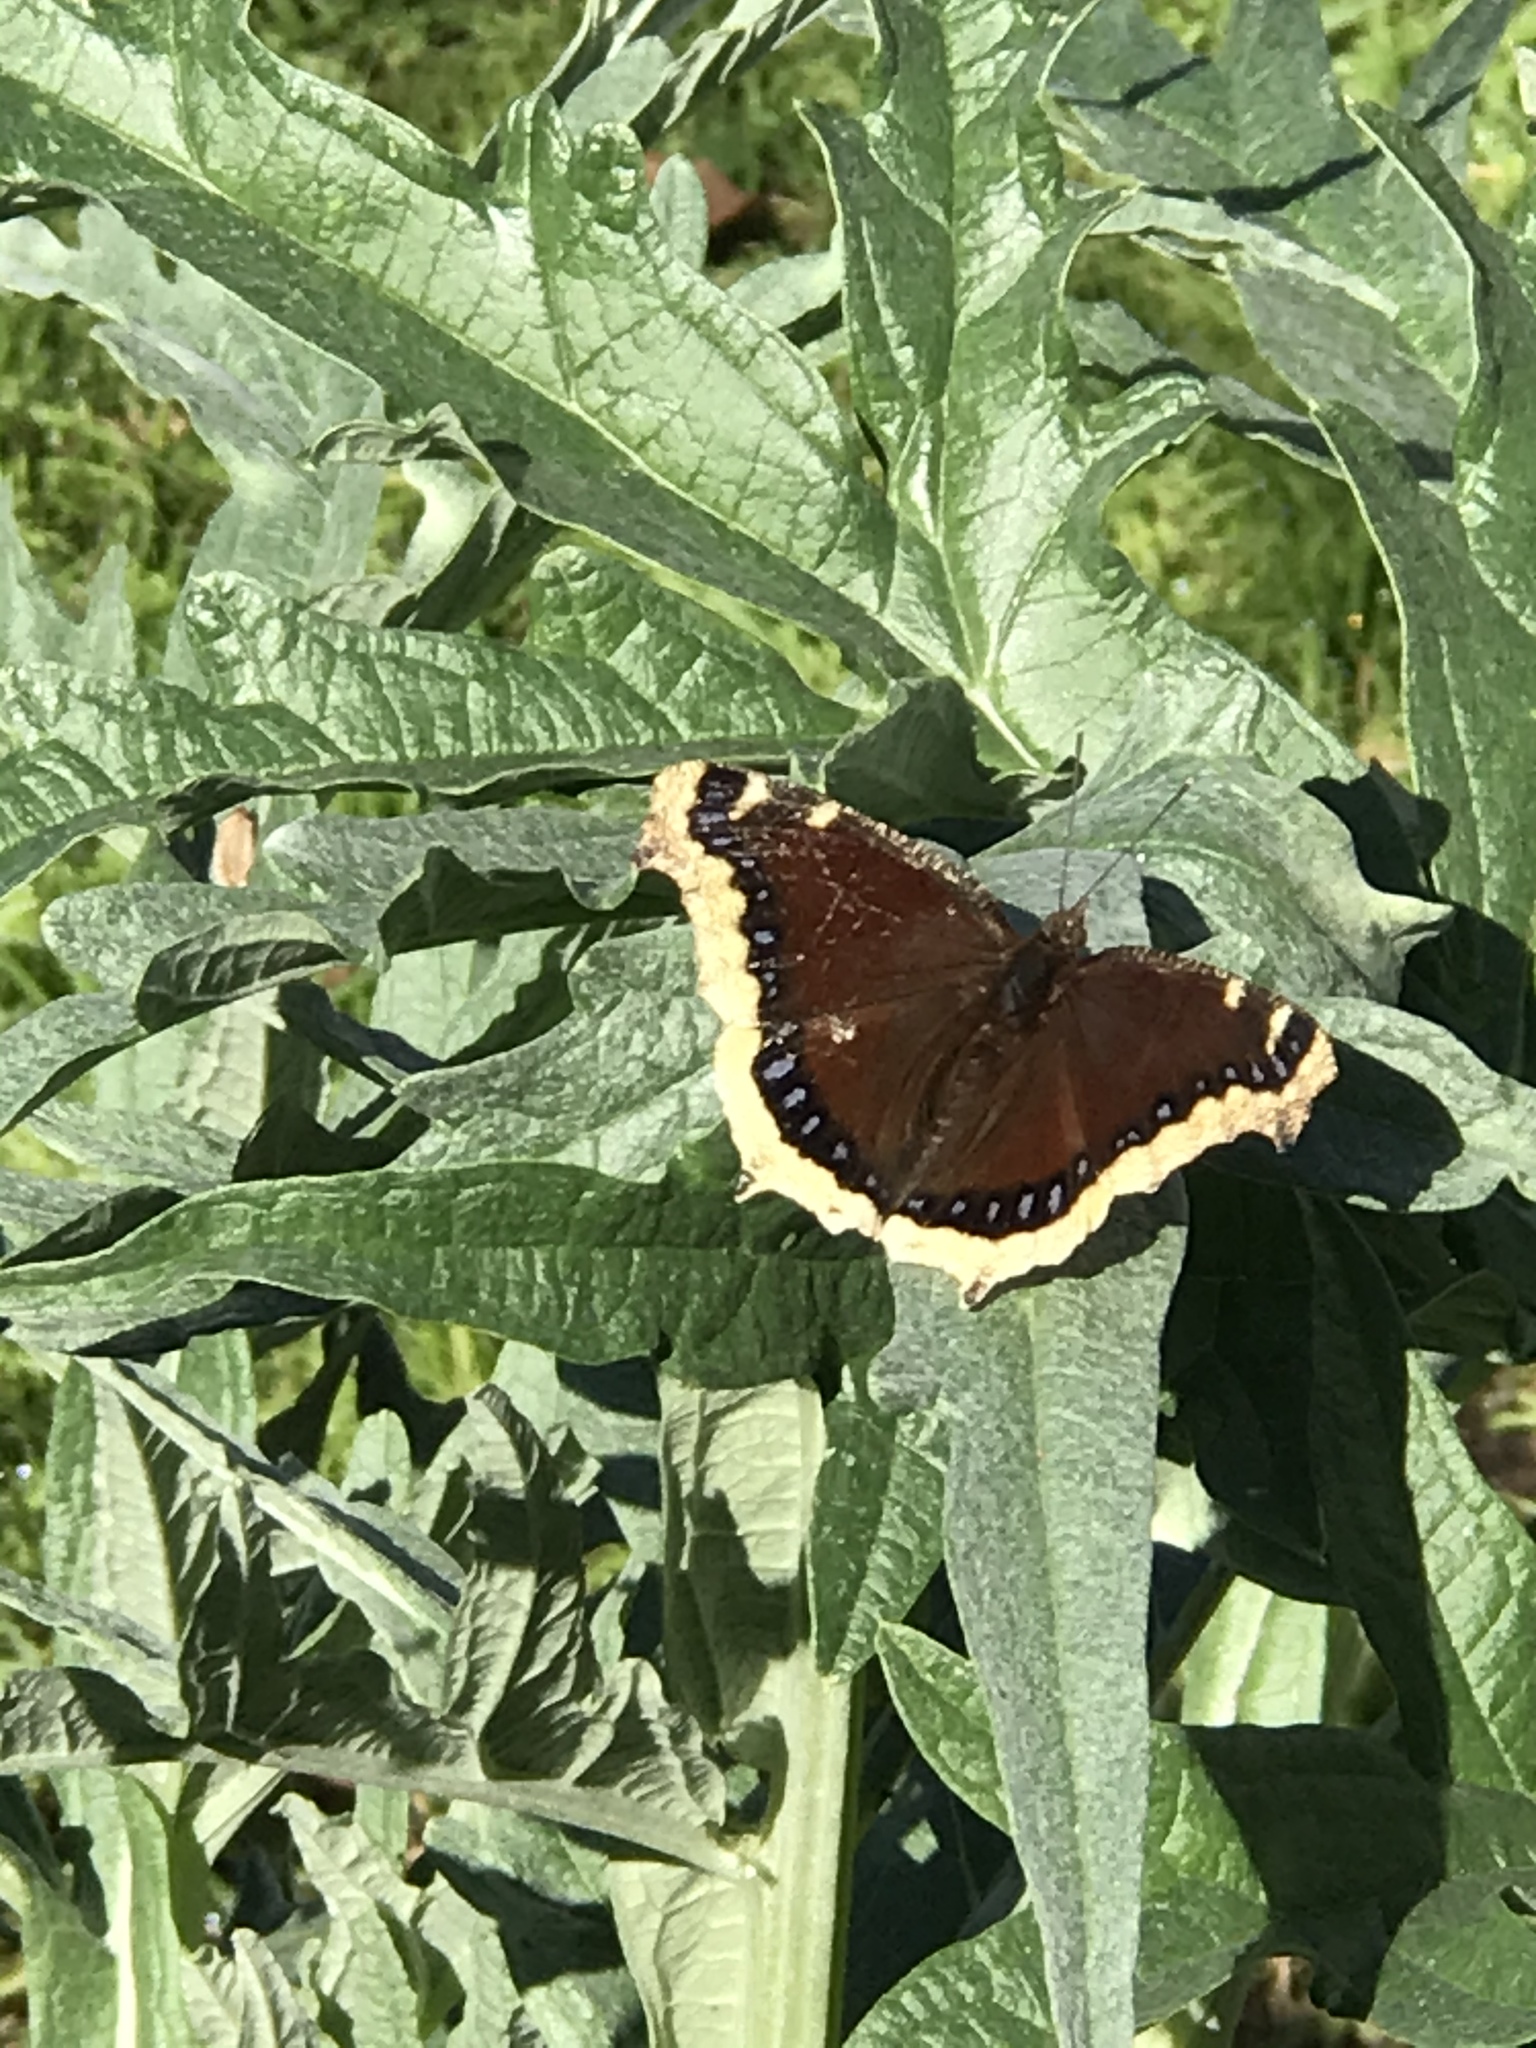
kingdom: Animalia
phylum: Arthropoda
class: Insecta
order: Lepidoptera
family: Nymphalidae
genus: Nymphalis
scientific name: Nymphalis antiopa
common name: Camberwell beauty
